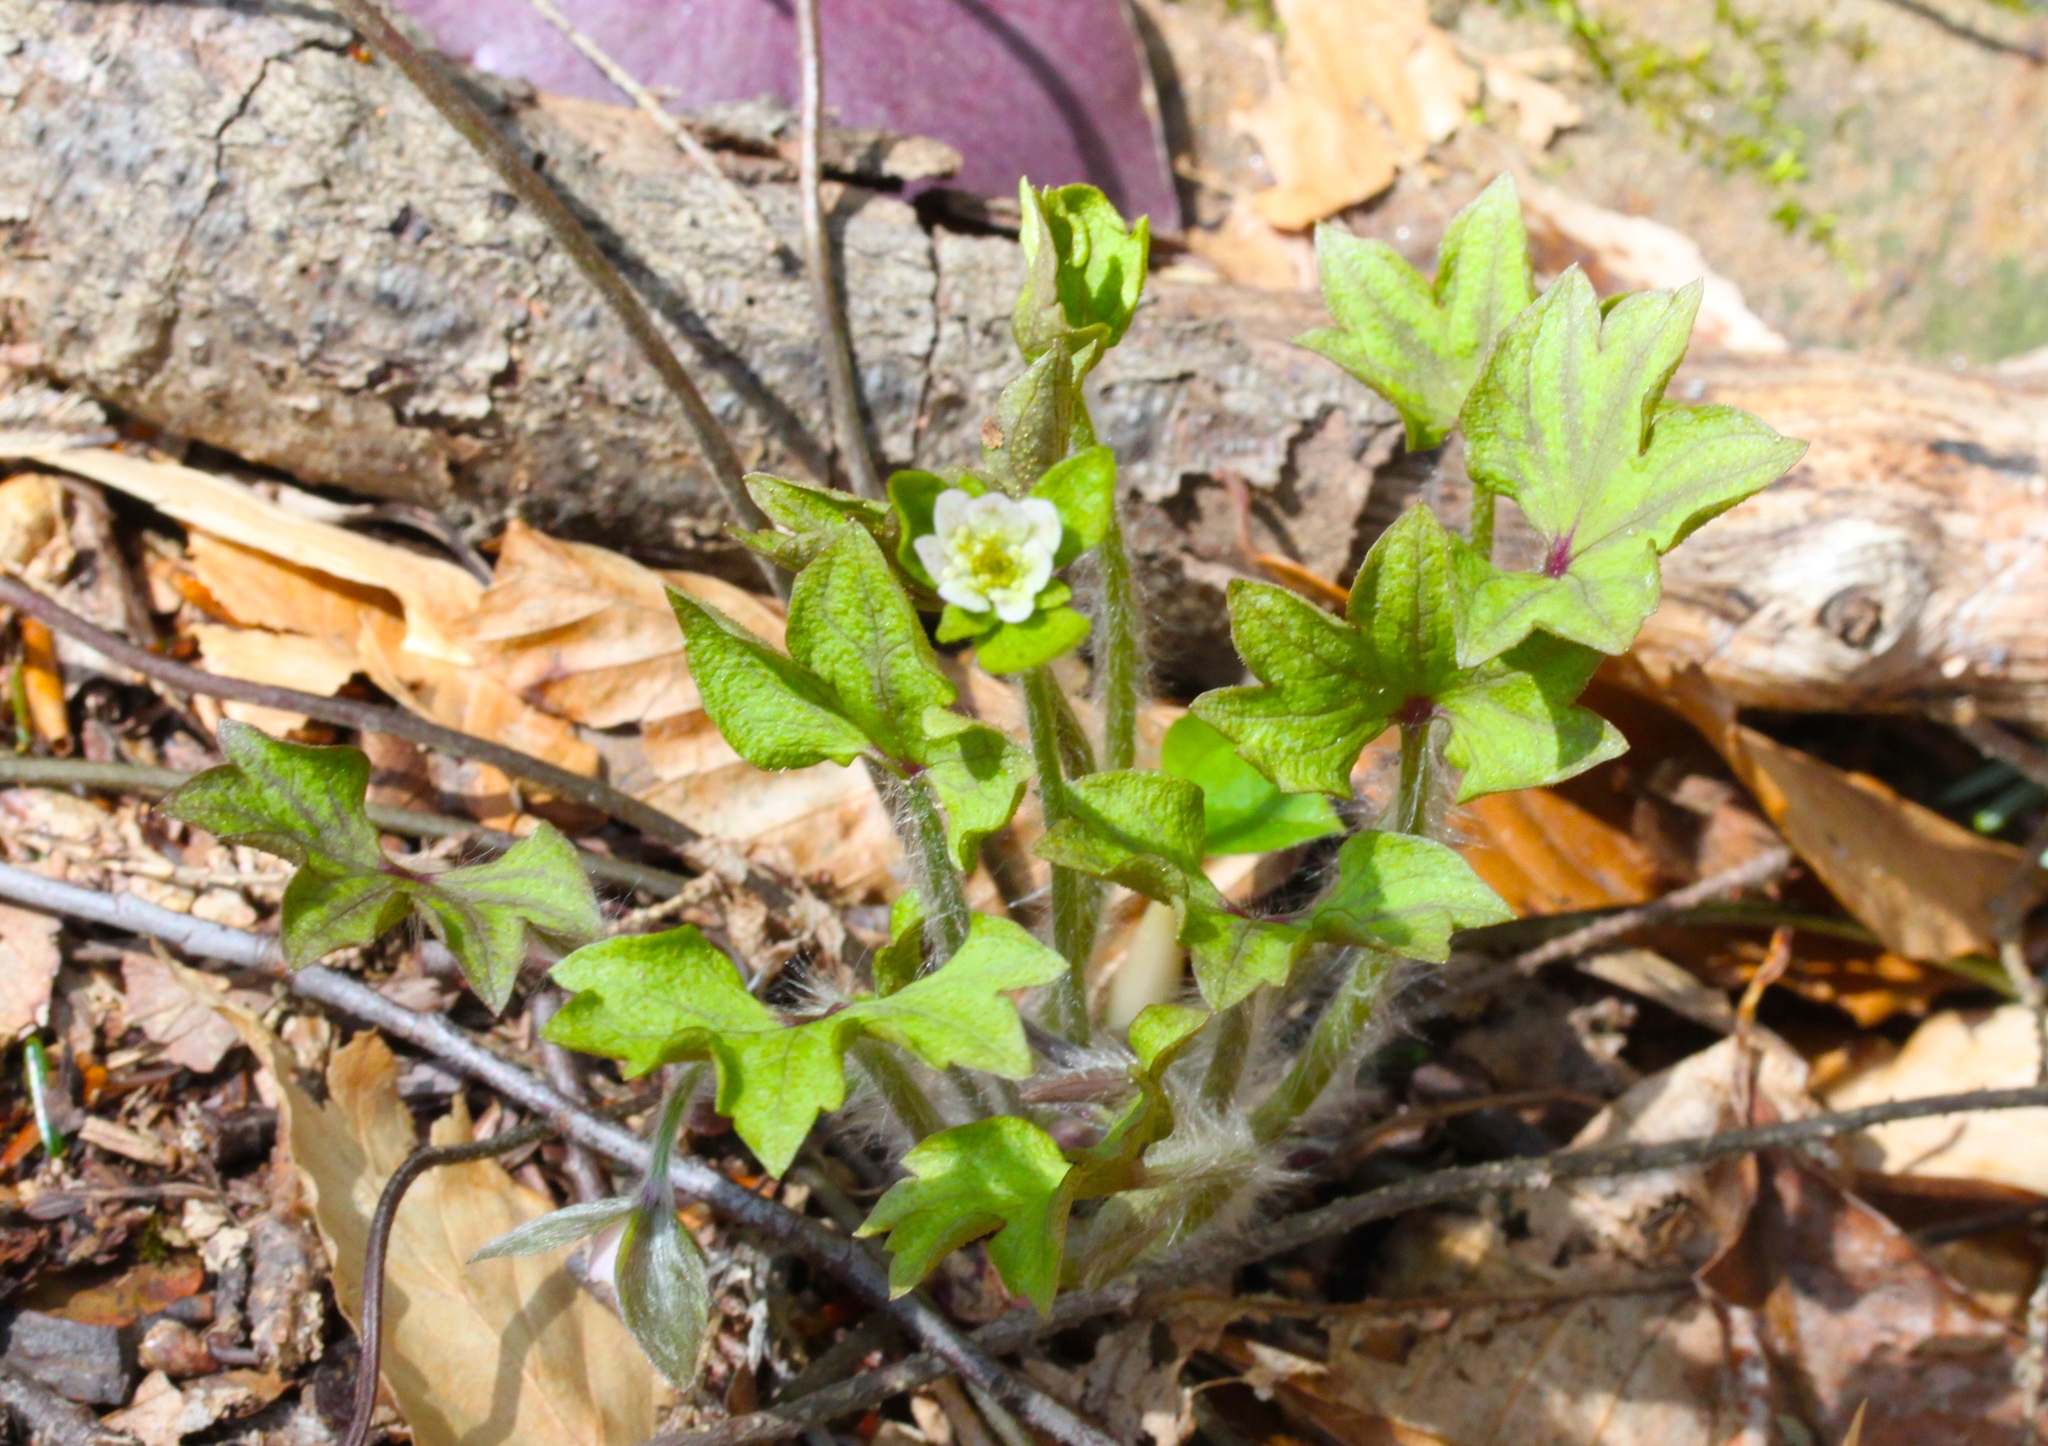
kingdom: Plantae
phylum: Tracheophyta
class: Magnoliopsida
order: Ranunculales
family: Ranunculaceae
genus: Hepatica
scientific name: Hepatica acutiloba
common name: Sharp-lobed hepatica
